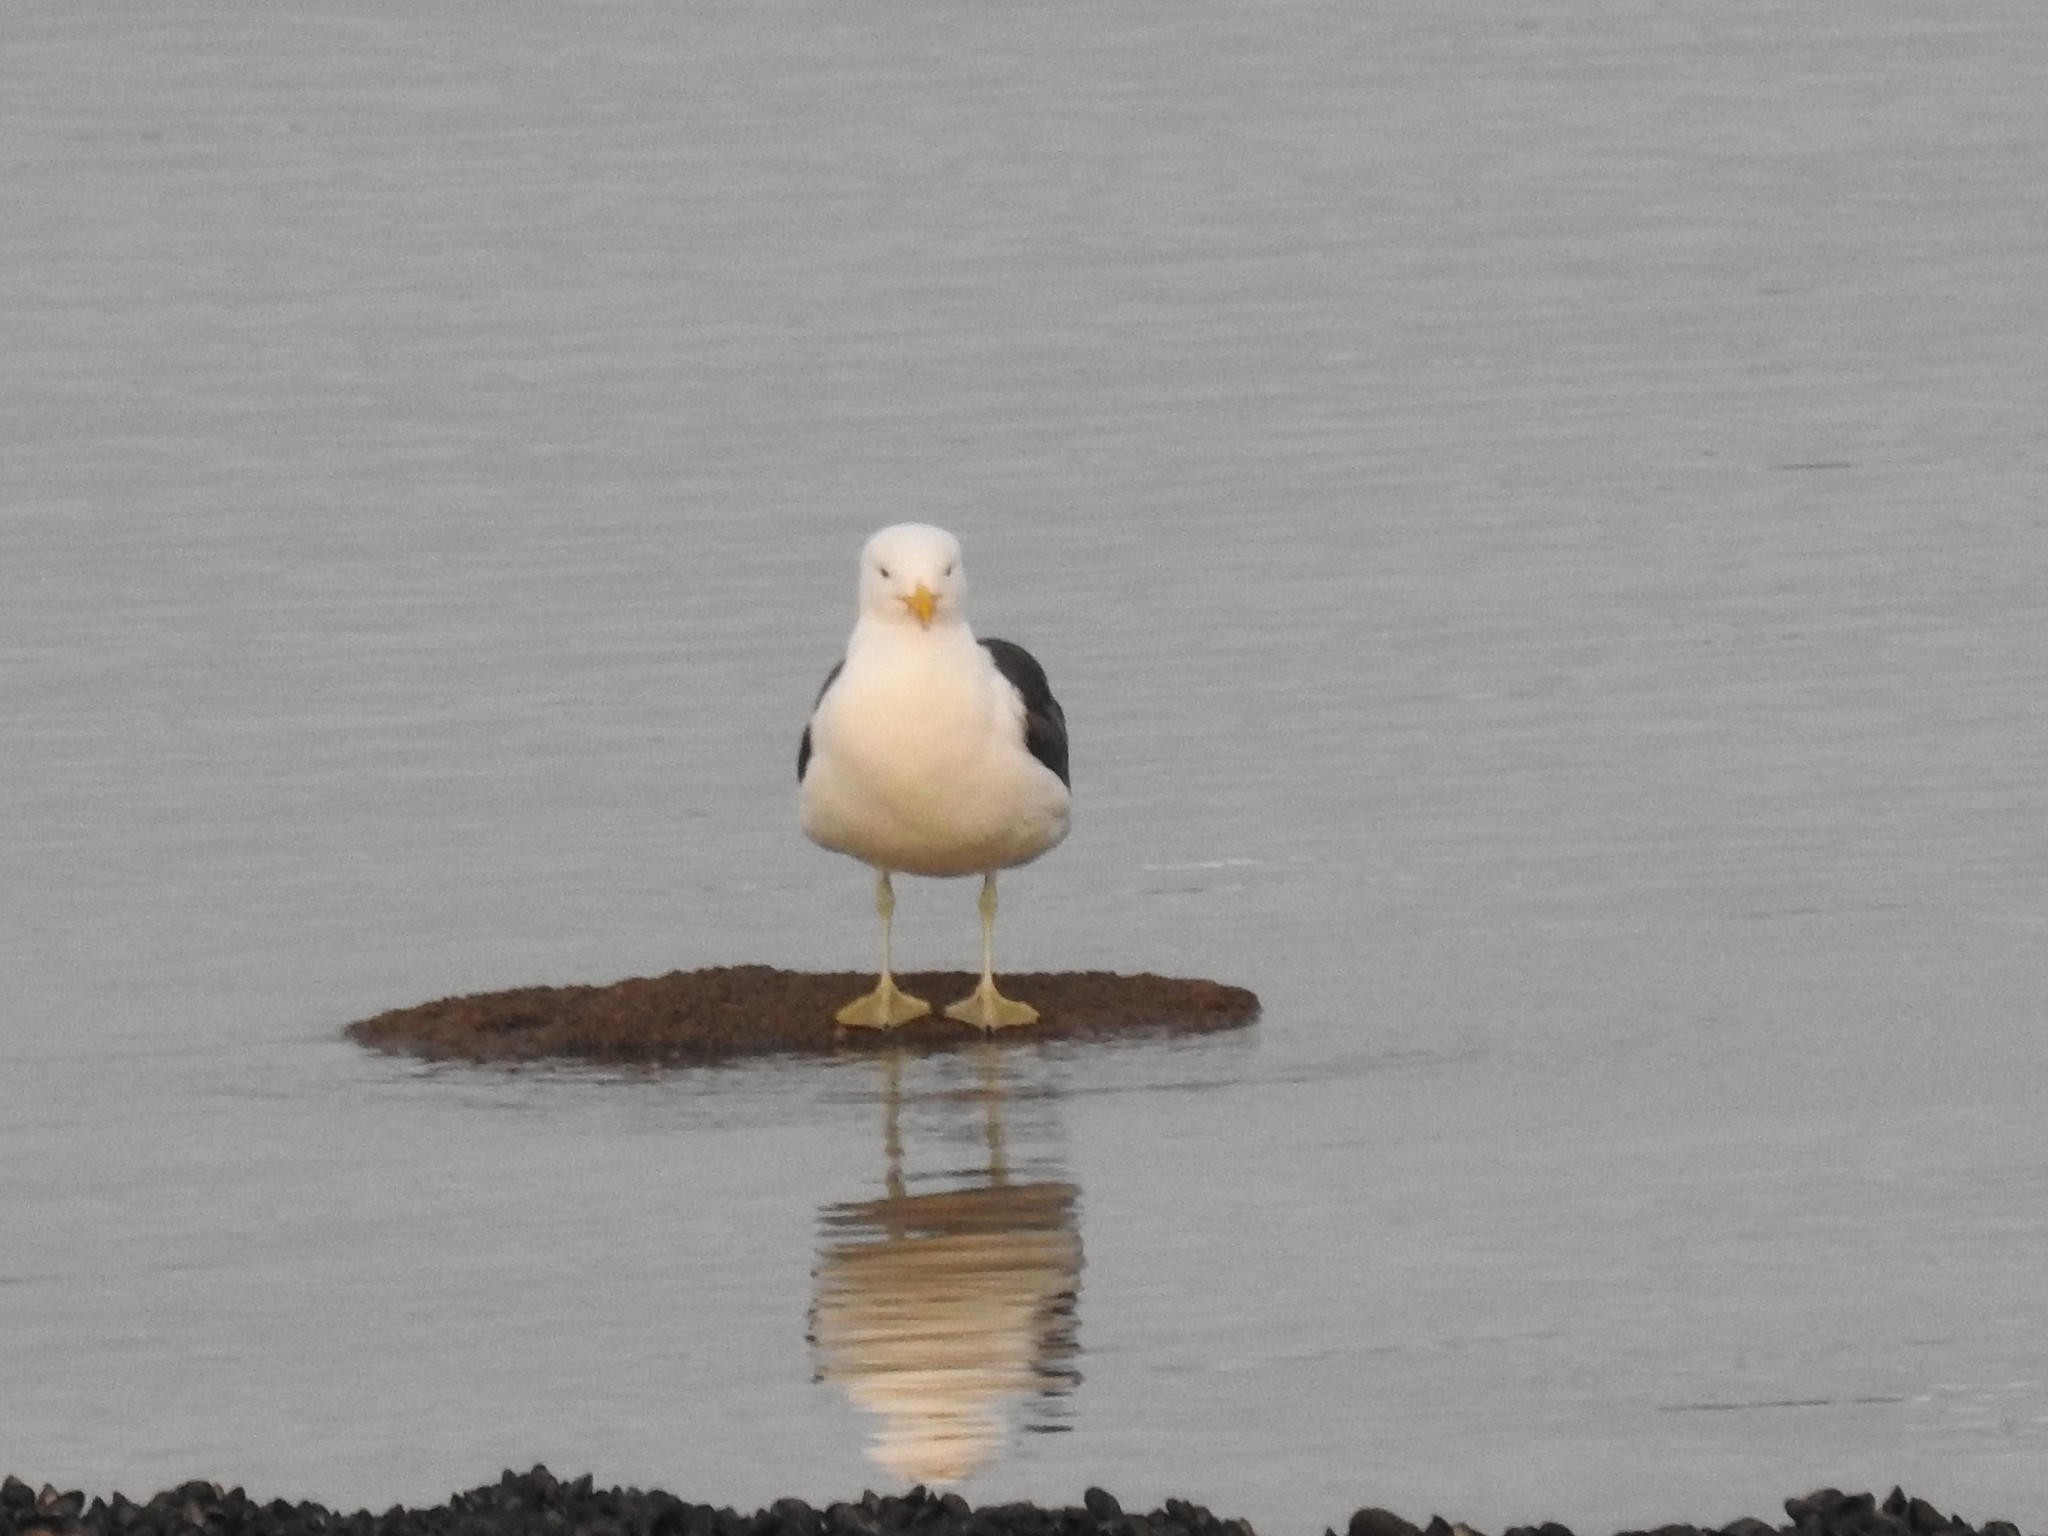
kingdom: Animalia
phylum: Chordata
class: Aves
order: Charadriiformes
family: Laridae
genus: Larus
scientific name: Larus dominicanus
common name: Kelp gull
